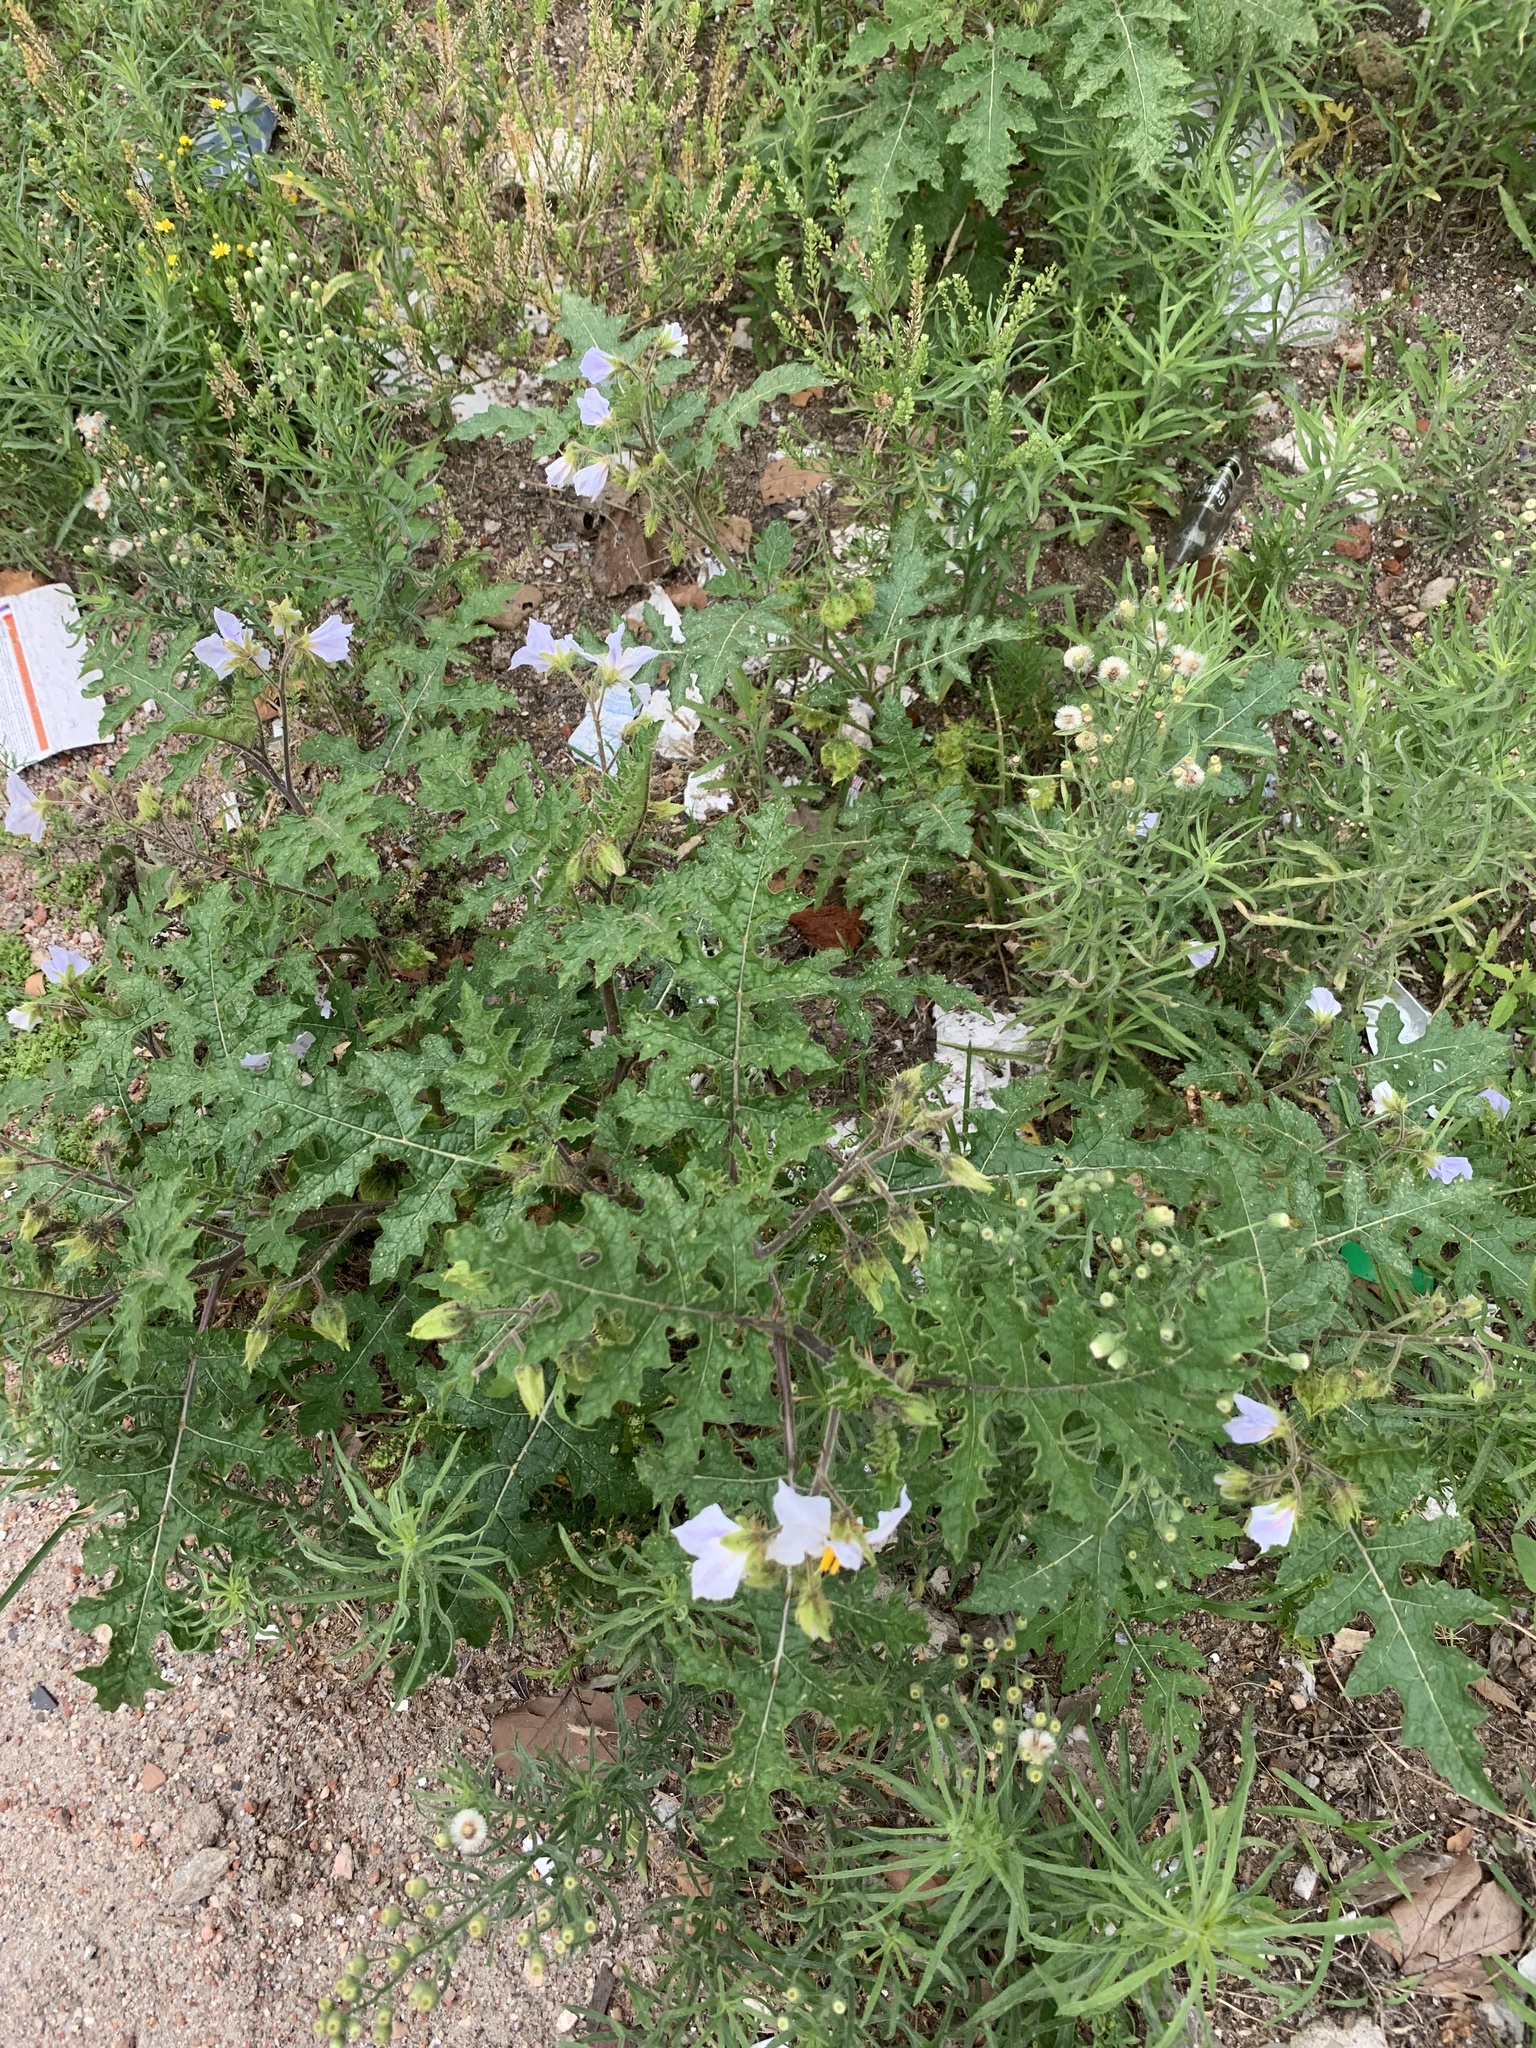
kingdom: Plantae
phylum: Tracheophyta
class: Magnoliopsida
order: Solanales
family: Solanaceae
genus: Solanum
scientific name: Solanum sisymbriifolium
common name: Red buffalo-bur
